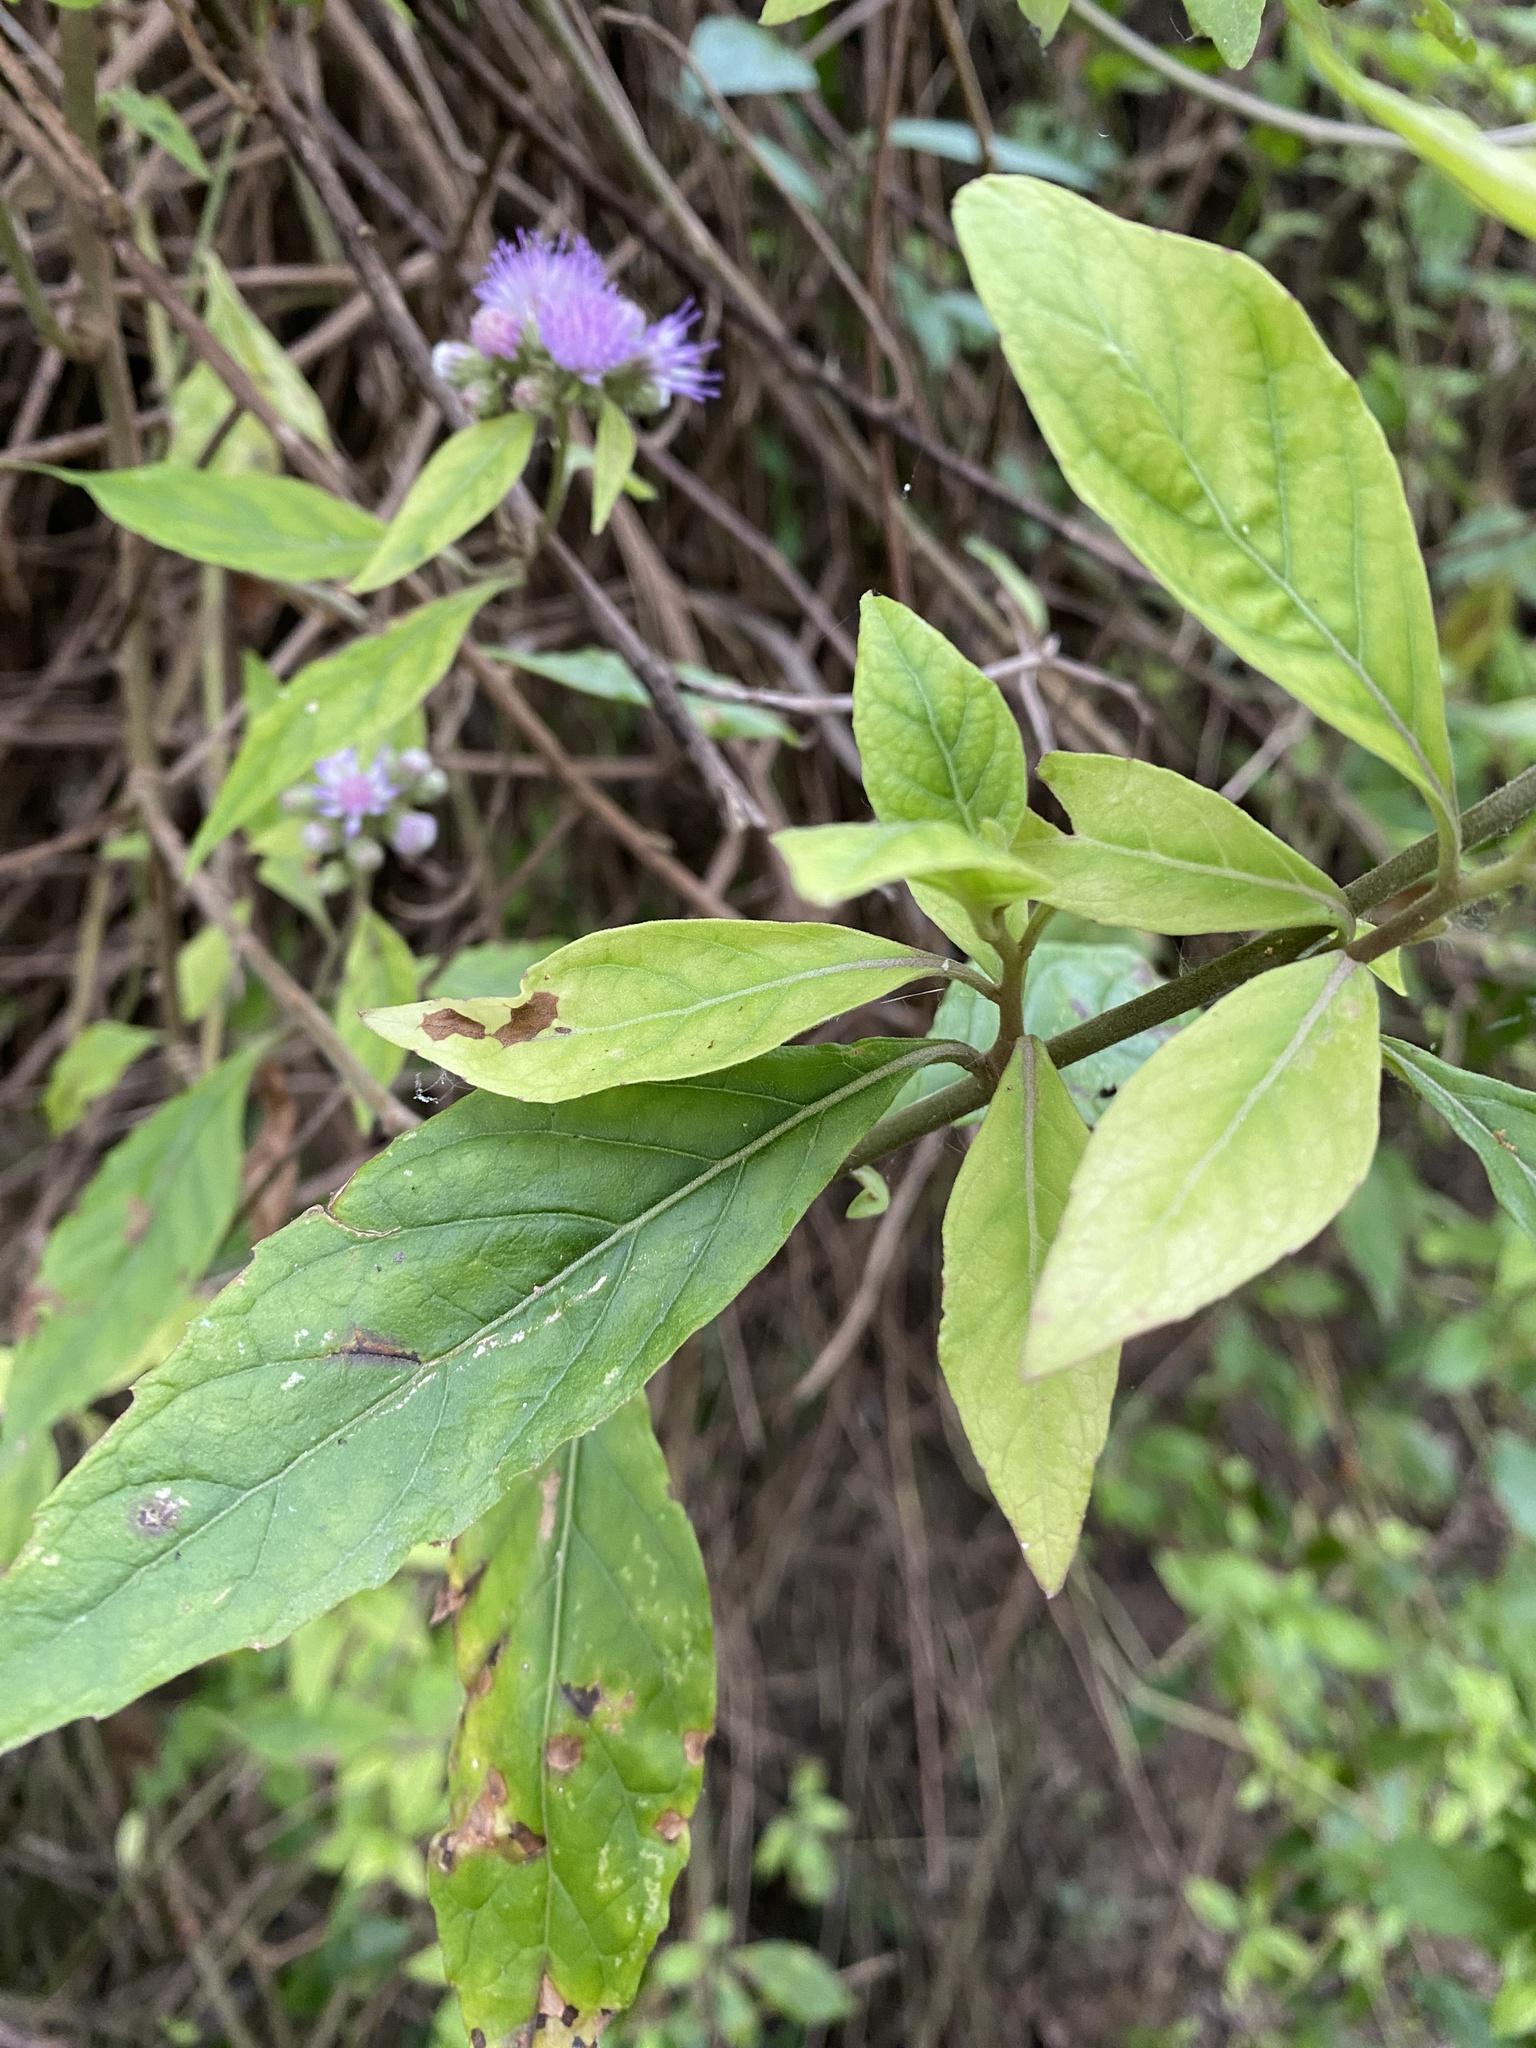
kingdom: Plantae
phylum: Tracheophyta
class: Magnoliopsida
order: Asterales
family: Asteraceae
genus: Cyrtocymura
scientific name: Cyrtocymura scorpioides
